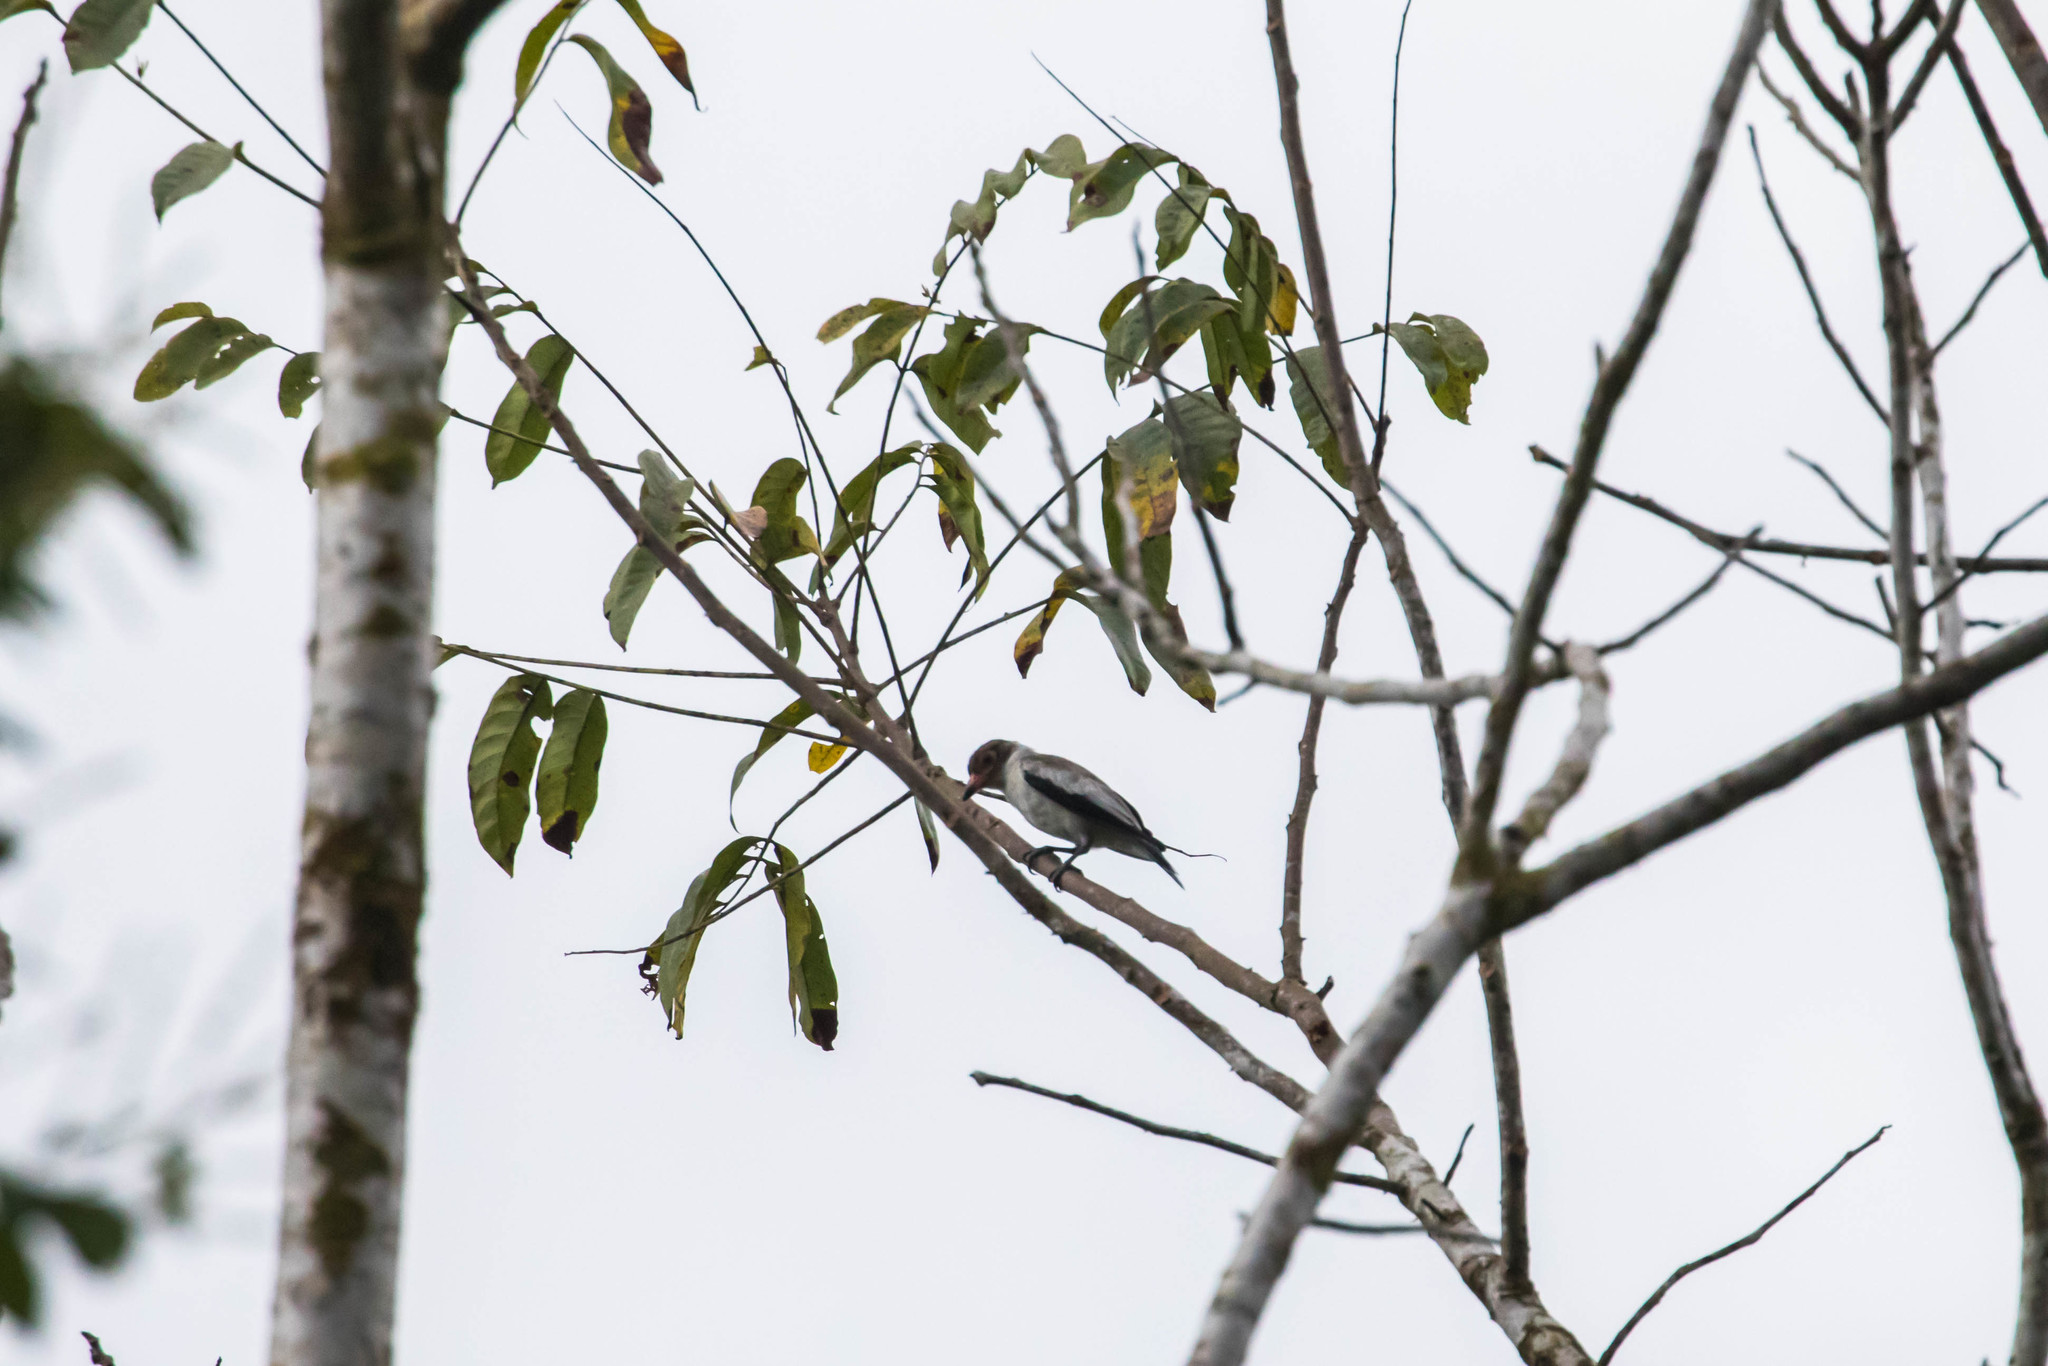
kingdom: Animalia
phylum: Chordata
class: Aves
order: Passeriformes
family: Cotingidae
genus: Tityra
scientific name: Tityra semifasciata
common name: Masked tityra
